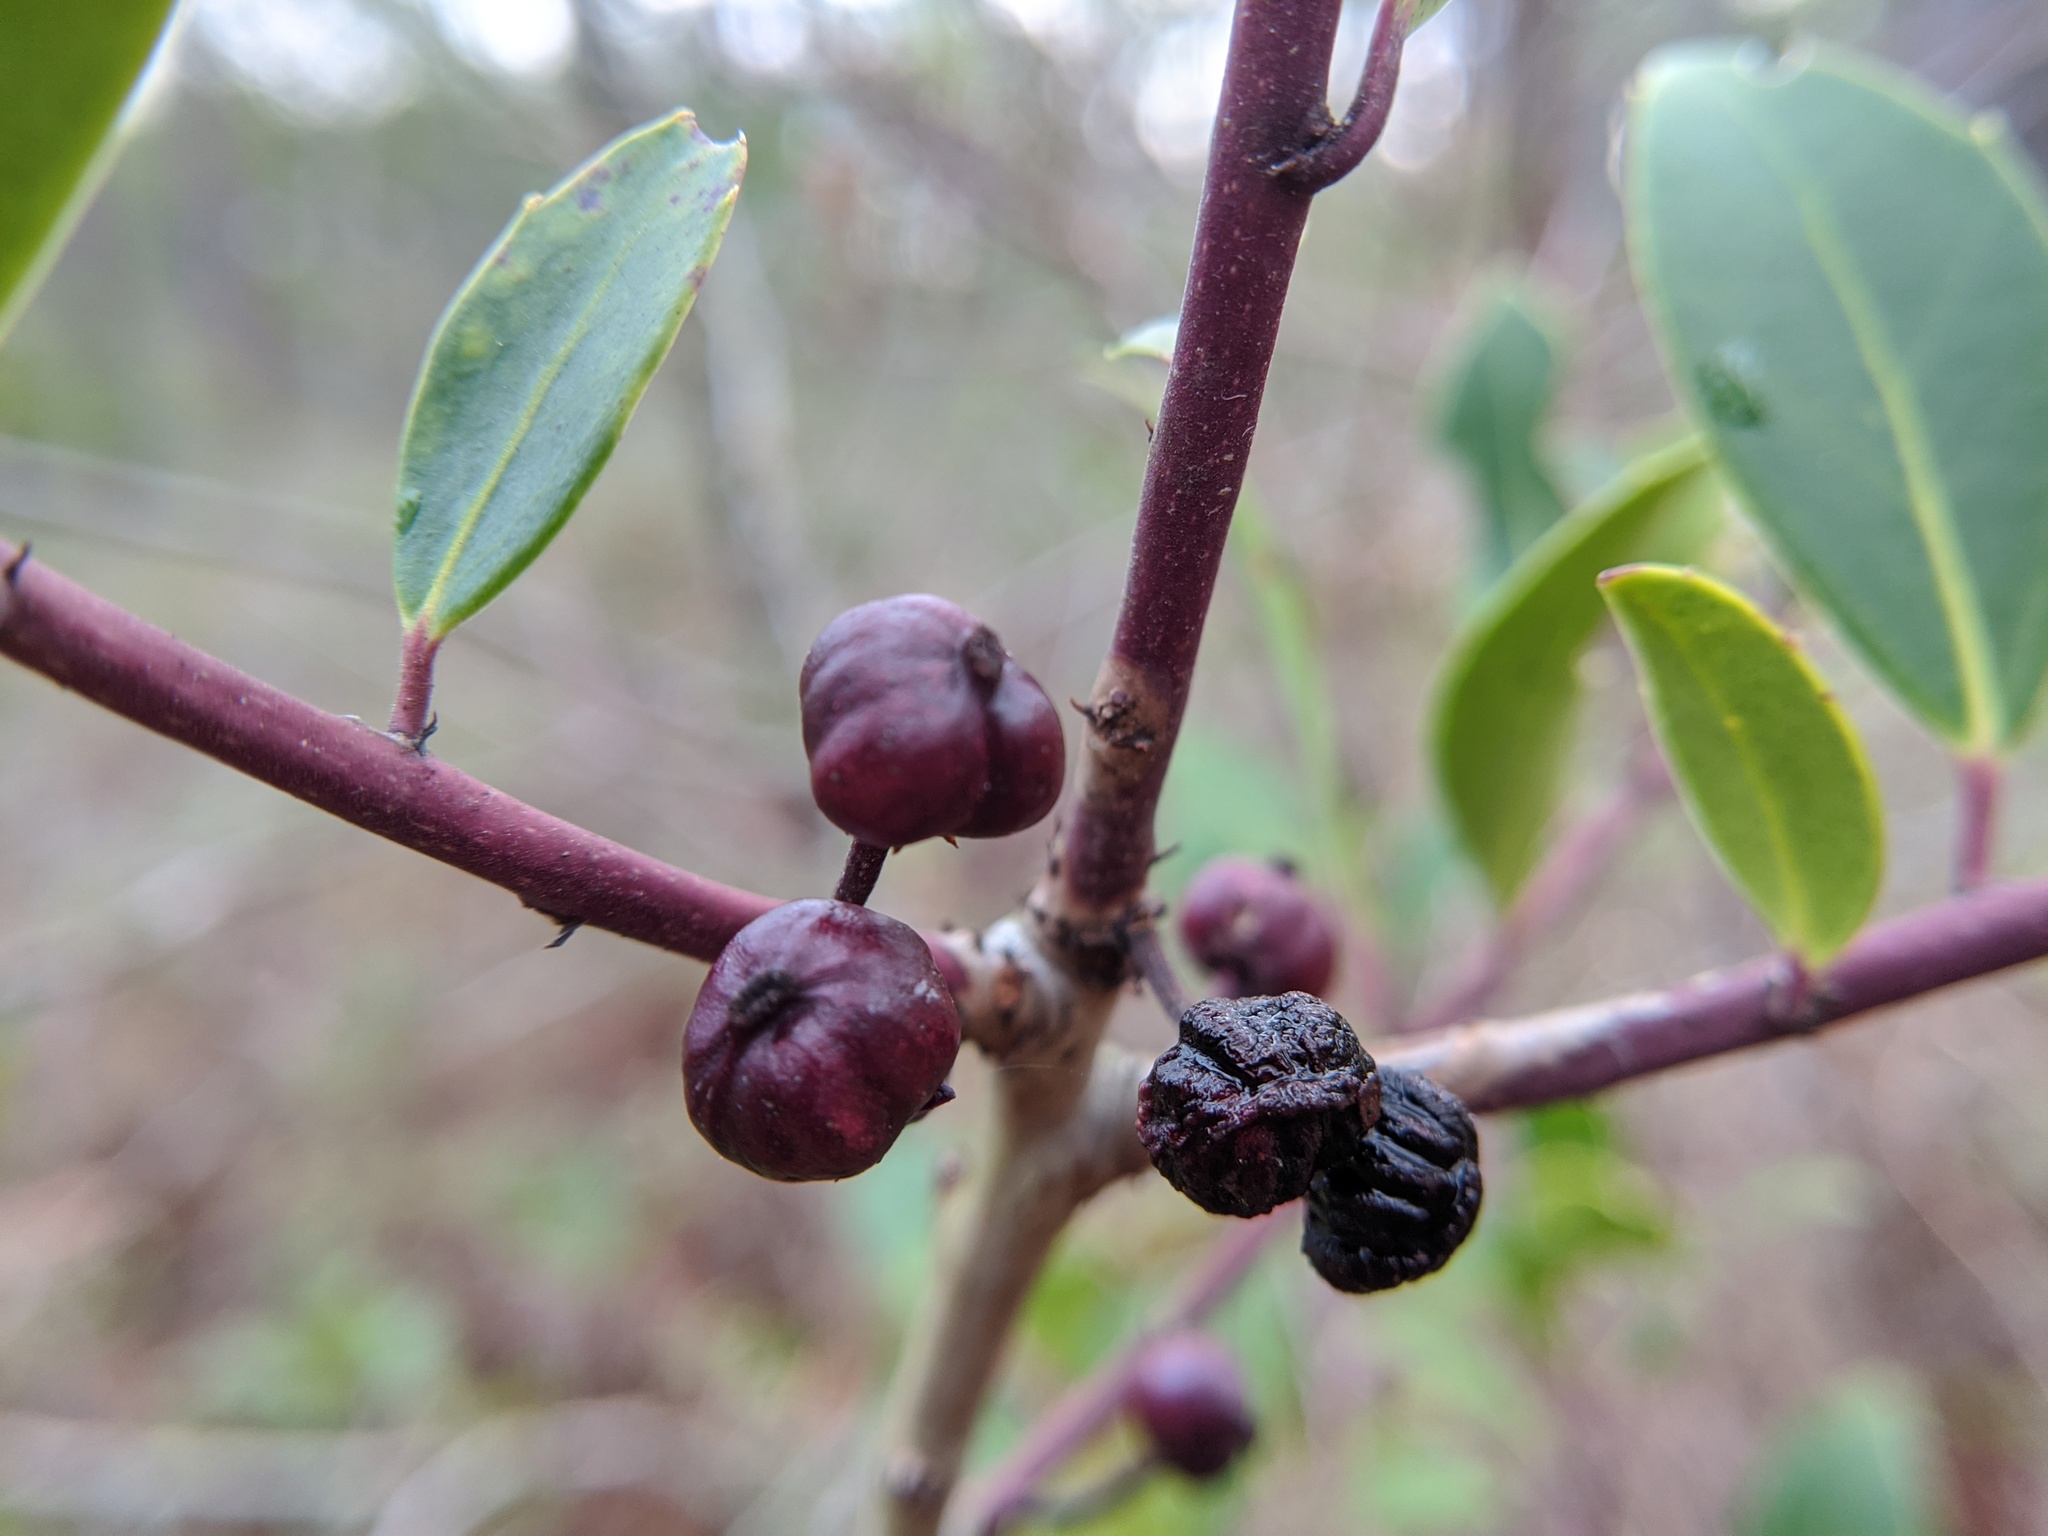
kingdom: Plantae
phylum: Tracheophyta
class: Magnoliopsida
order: Aquifoliales
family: Aquifoliaceae
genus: Ilex
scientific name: Ilex coriacea
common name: Sweet gallberry
